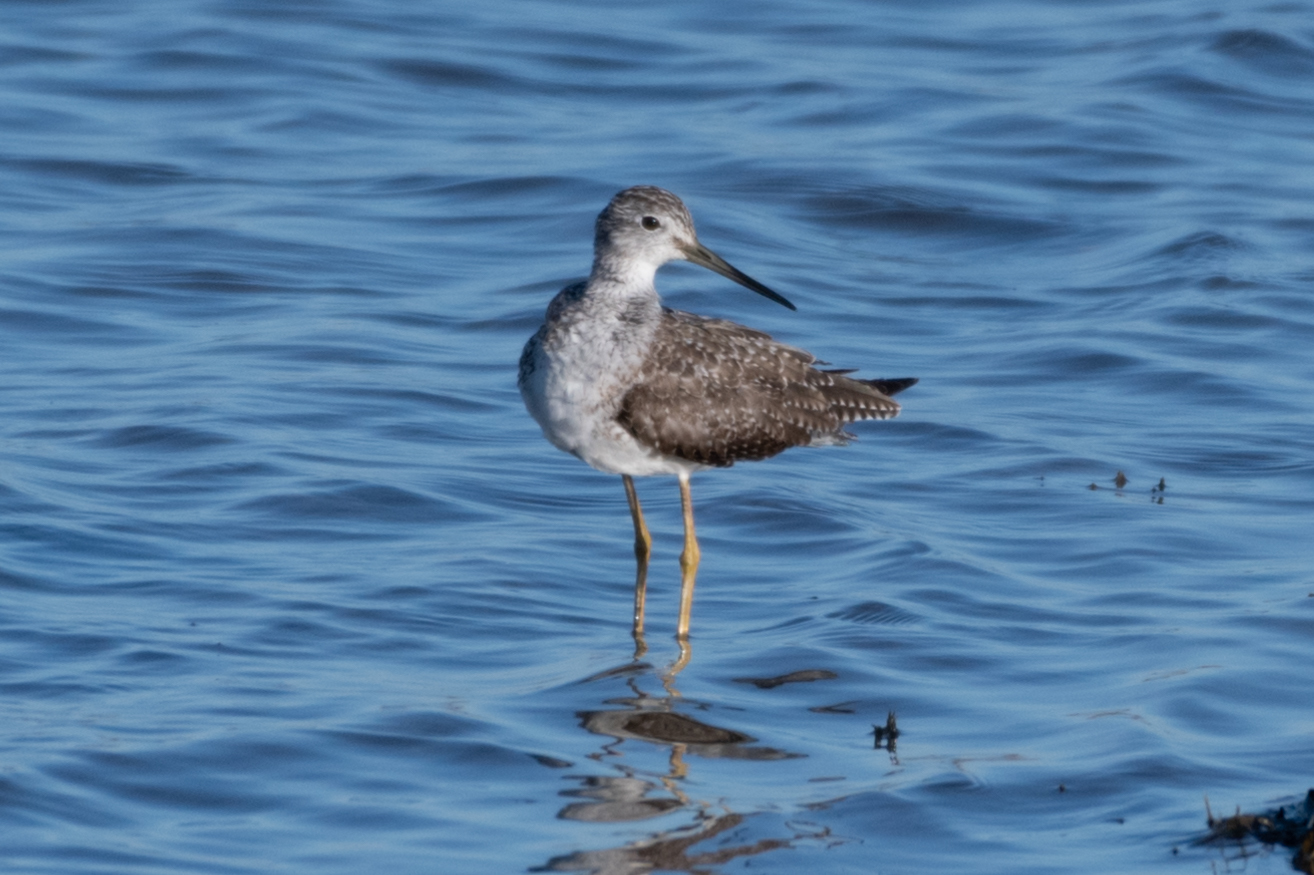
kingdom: Animalia
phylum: Chordata
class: Aves
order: Charadriiformes
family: Scolopacidae
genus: Tringa
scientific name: Tringa melanoleuca
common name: Greater yellowlegs
